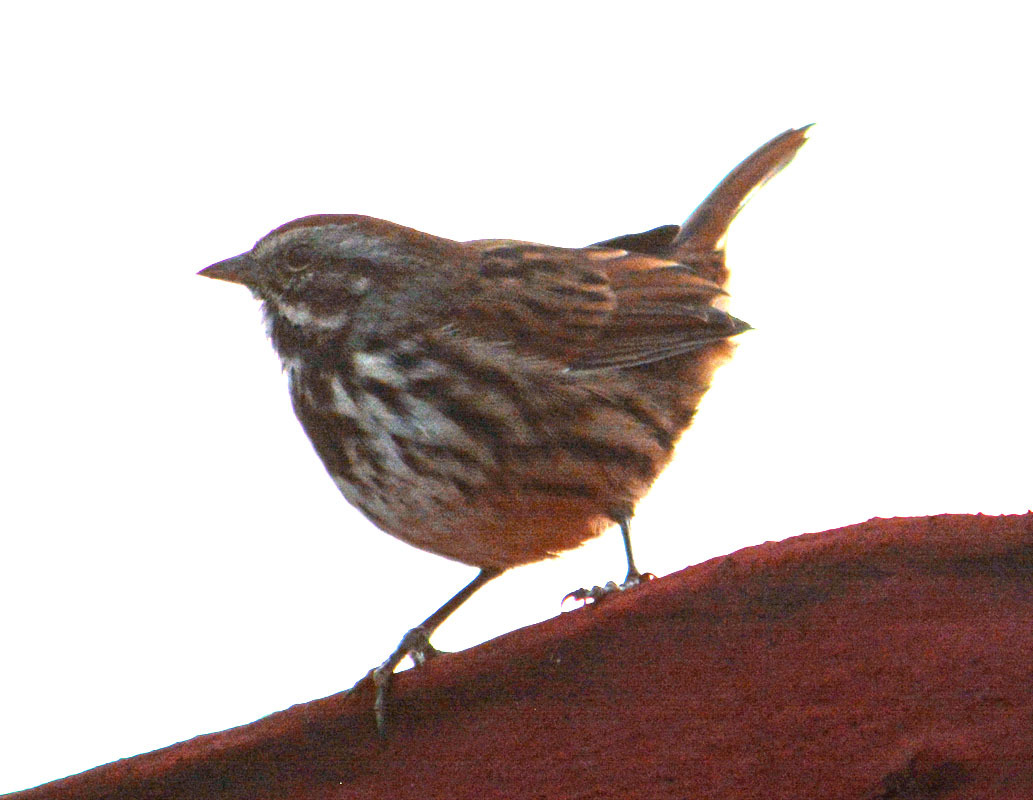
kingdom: Animalia
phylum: Chordata
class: Aves
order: Passeriformes
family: Passerellidae
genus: Melospiza
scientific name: Melospiza melodia
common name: Song sparrow
